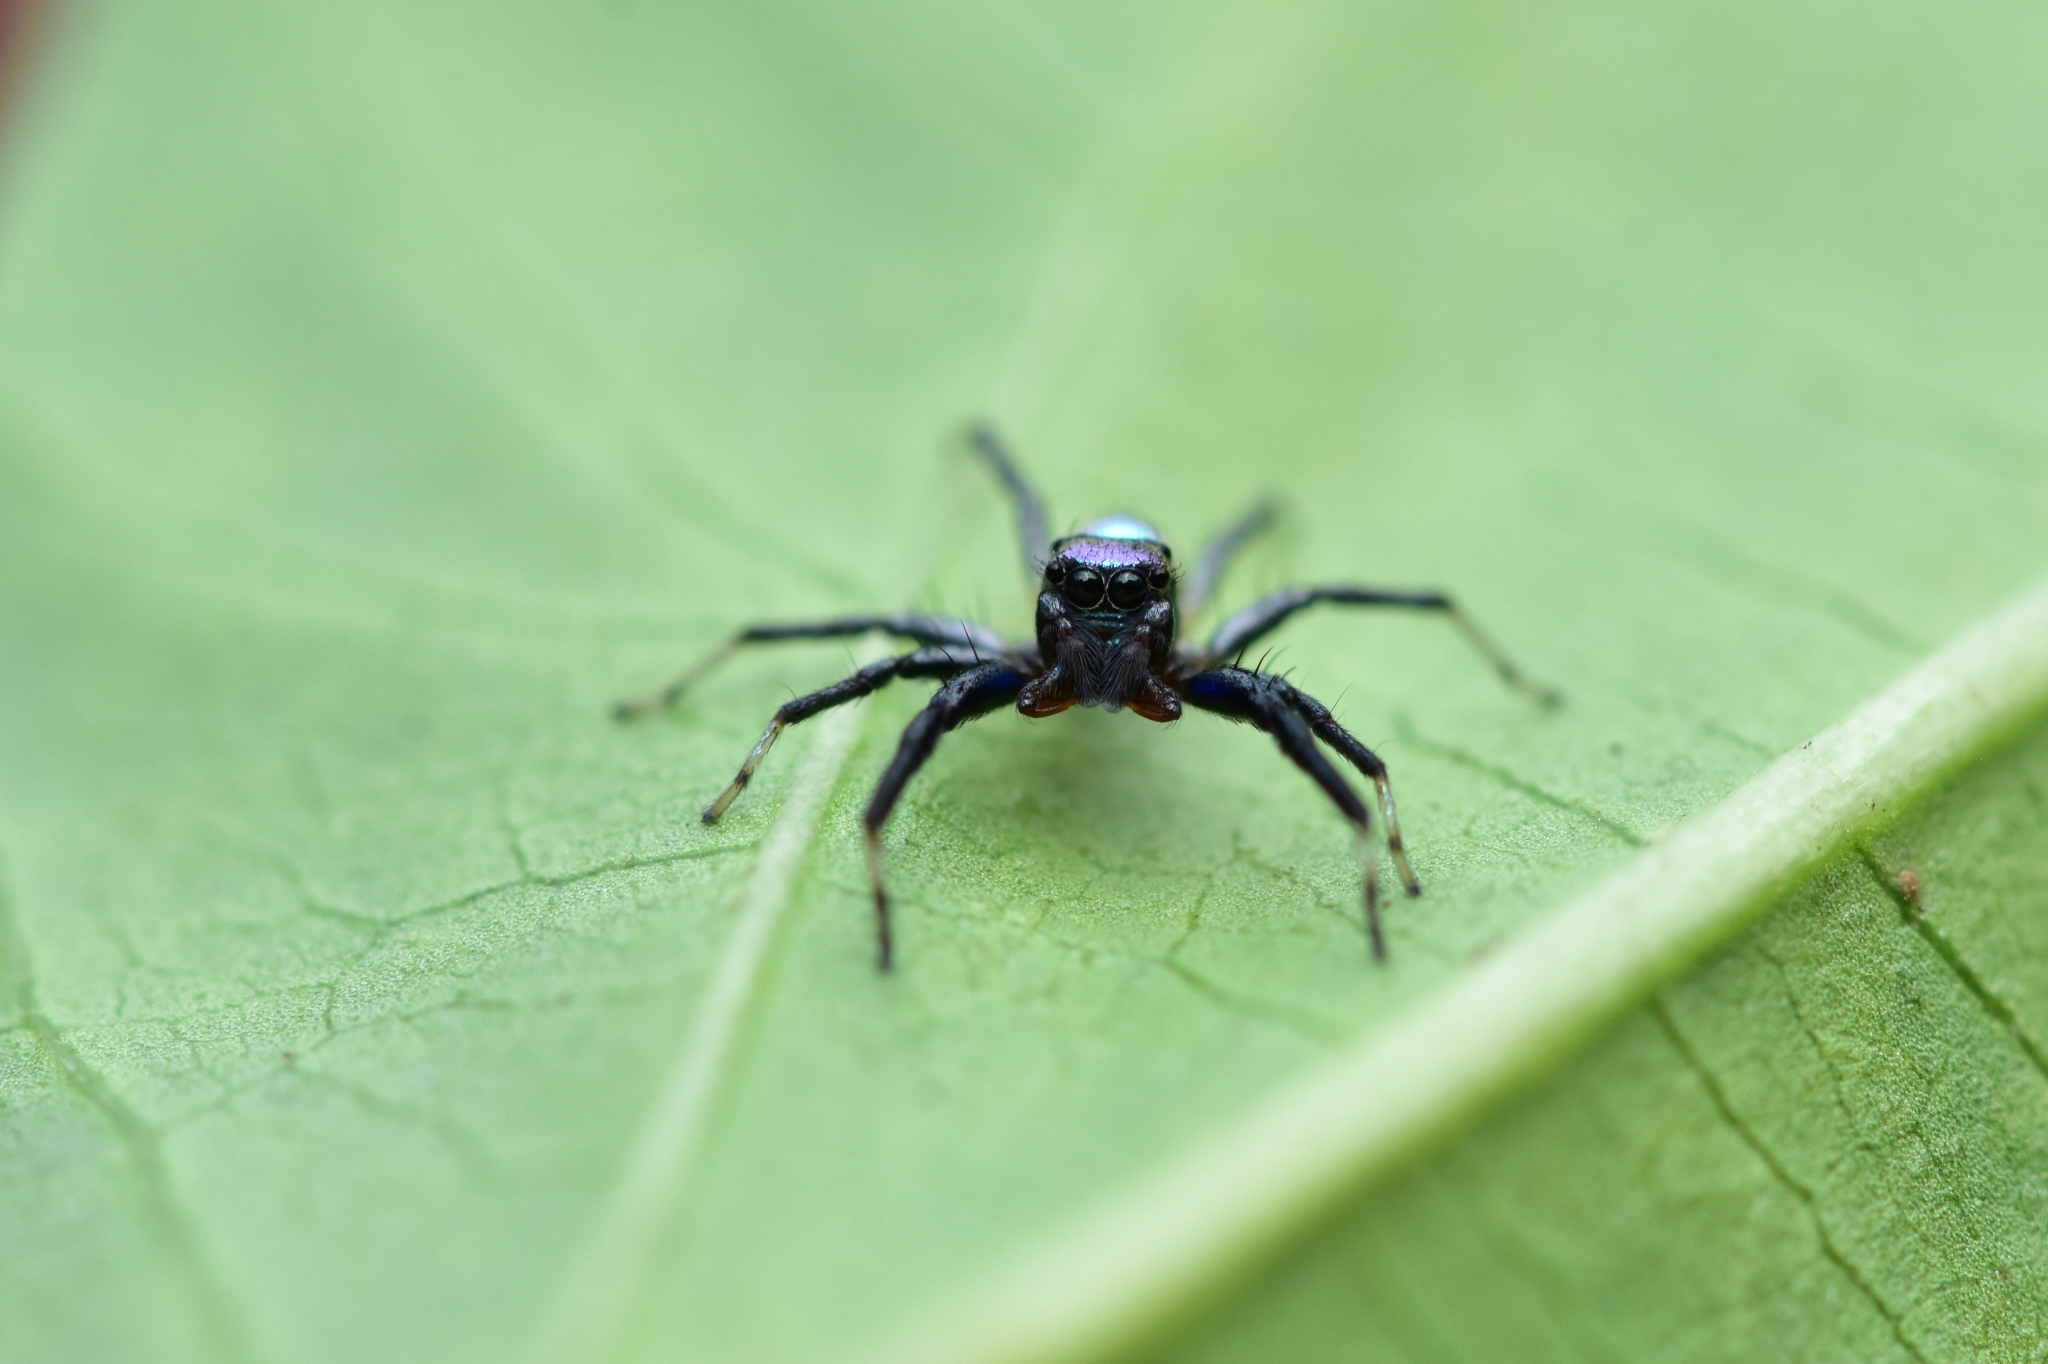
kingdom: Animalia
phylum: Arthropoda
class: Arachnida
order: Araneae
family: Salticidae
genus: Phintella
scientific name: Phintella vittata
